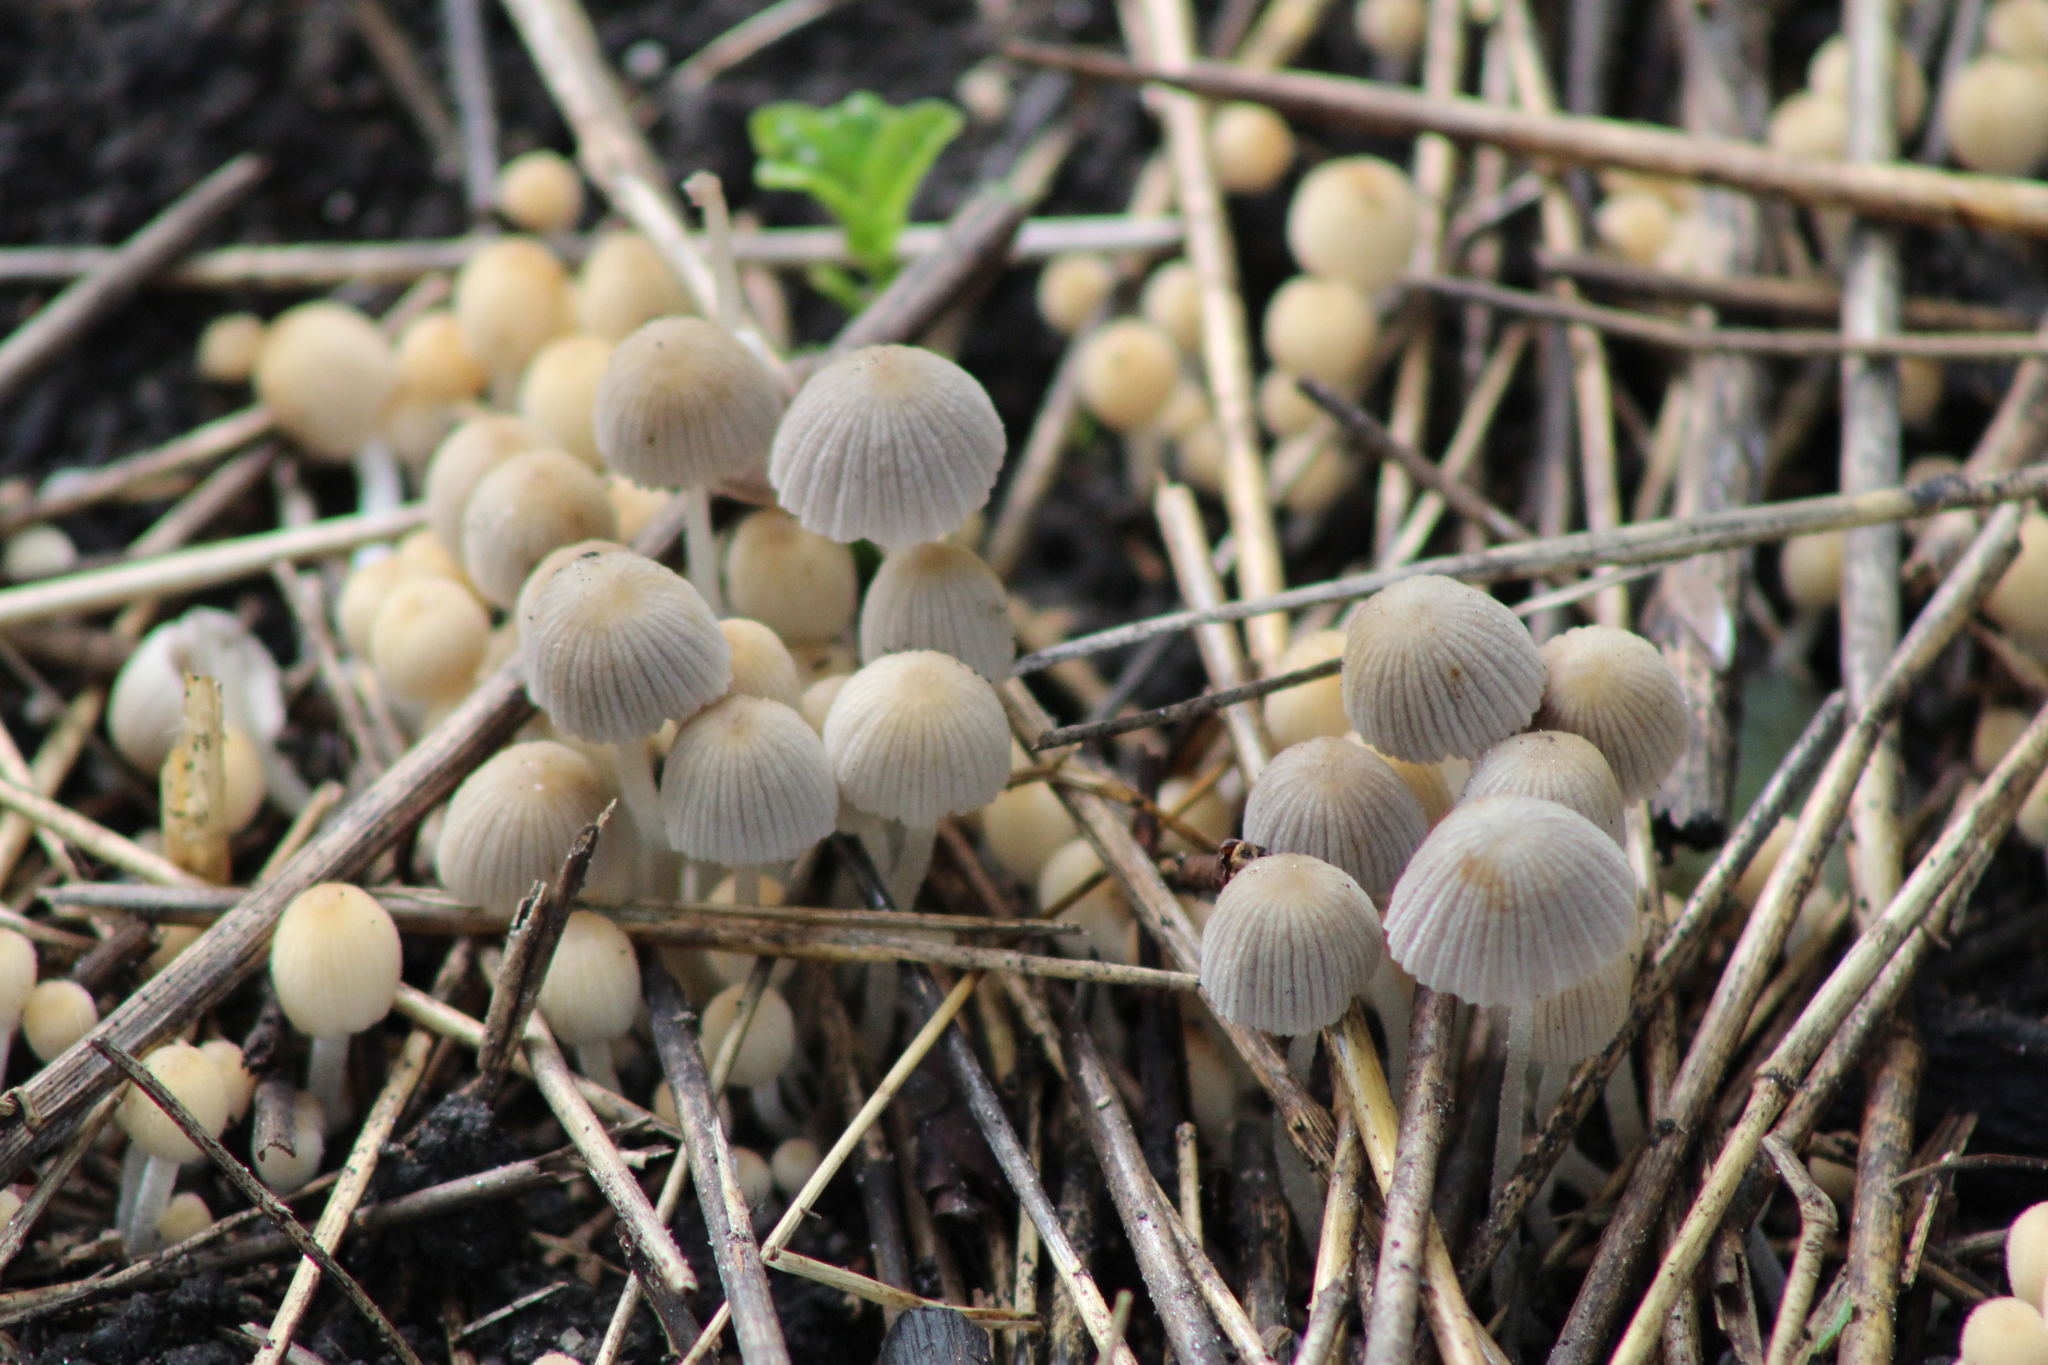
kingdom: Fungi
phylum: Basidiomycota
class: Agaricomycetes
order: Agaricales
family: Psathyrellaceae
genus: Coprinellus
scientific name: Coprinellus disseminatus
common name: Fairies' bonnets
